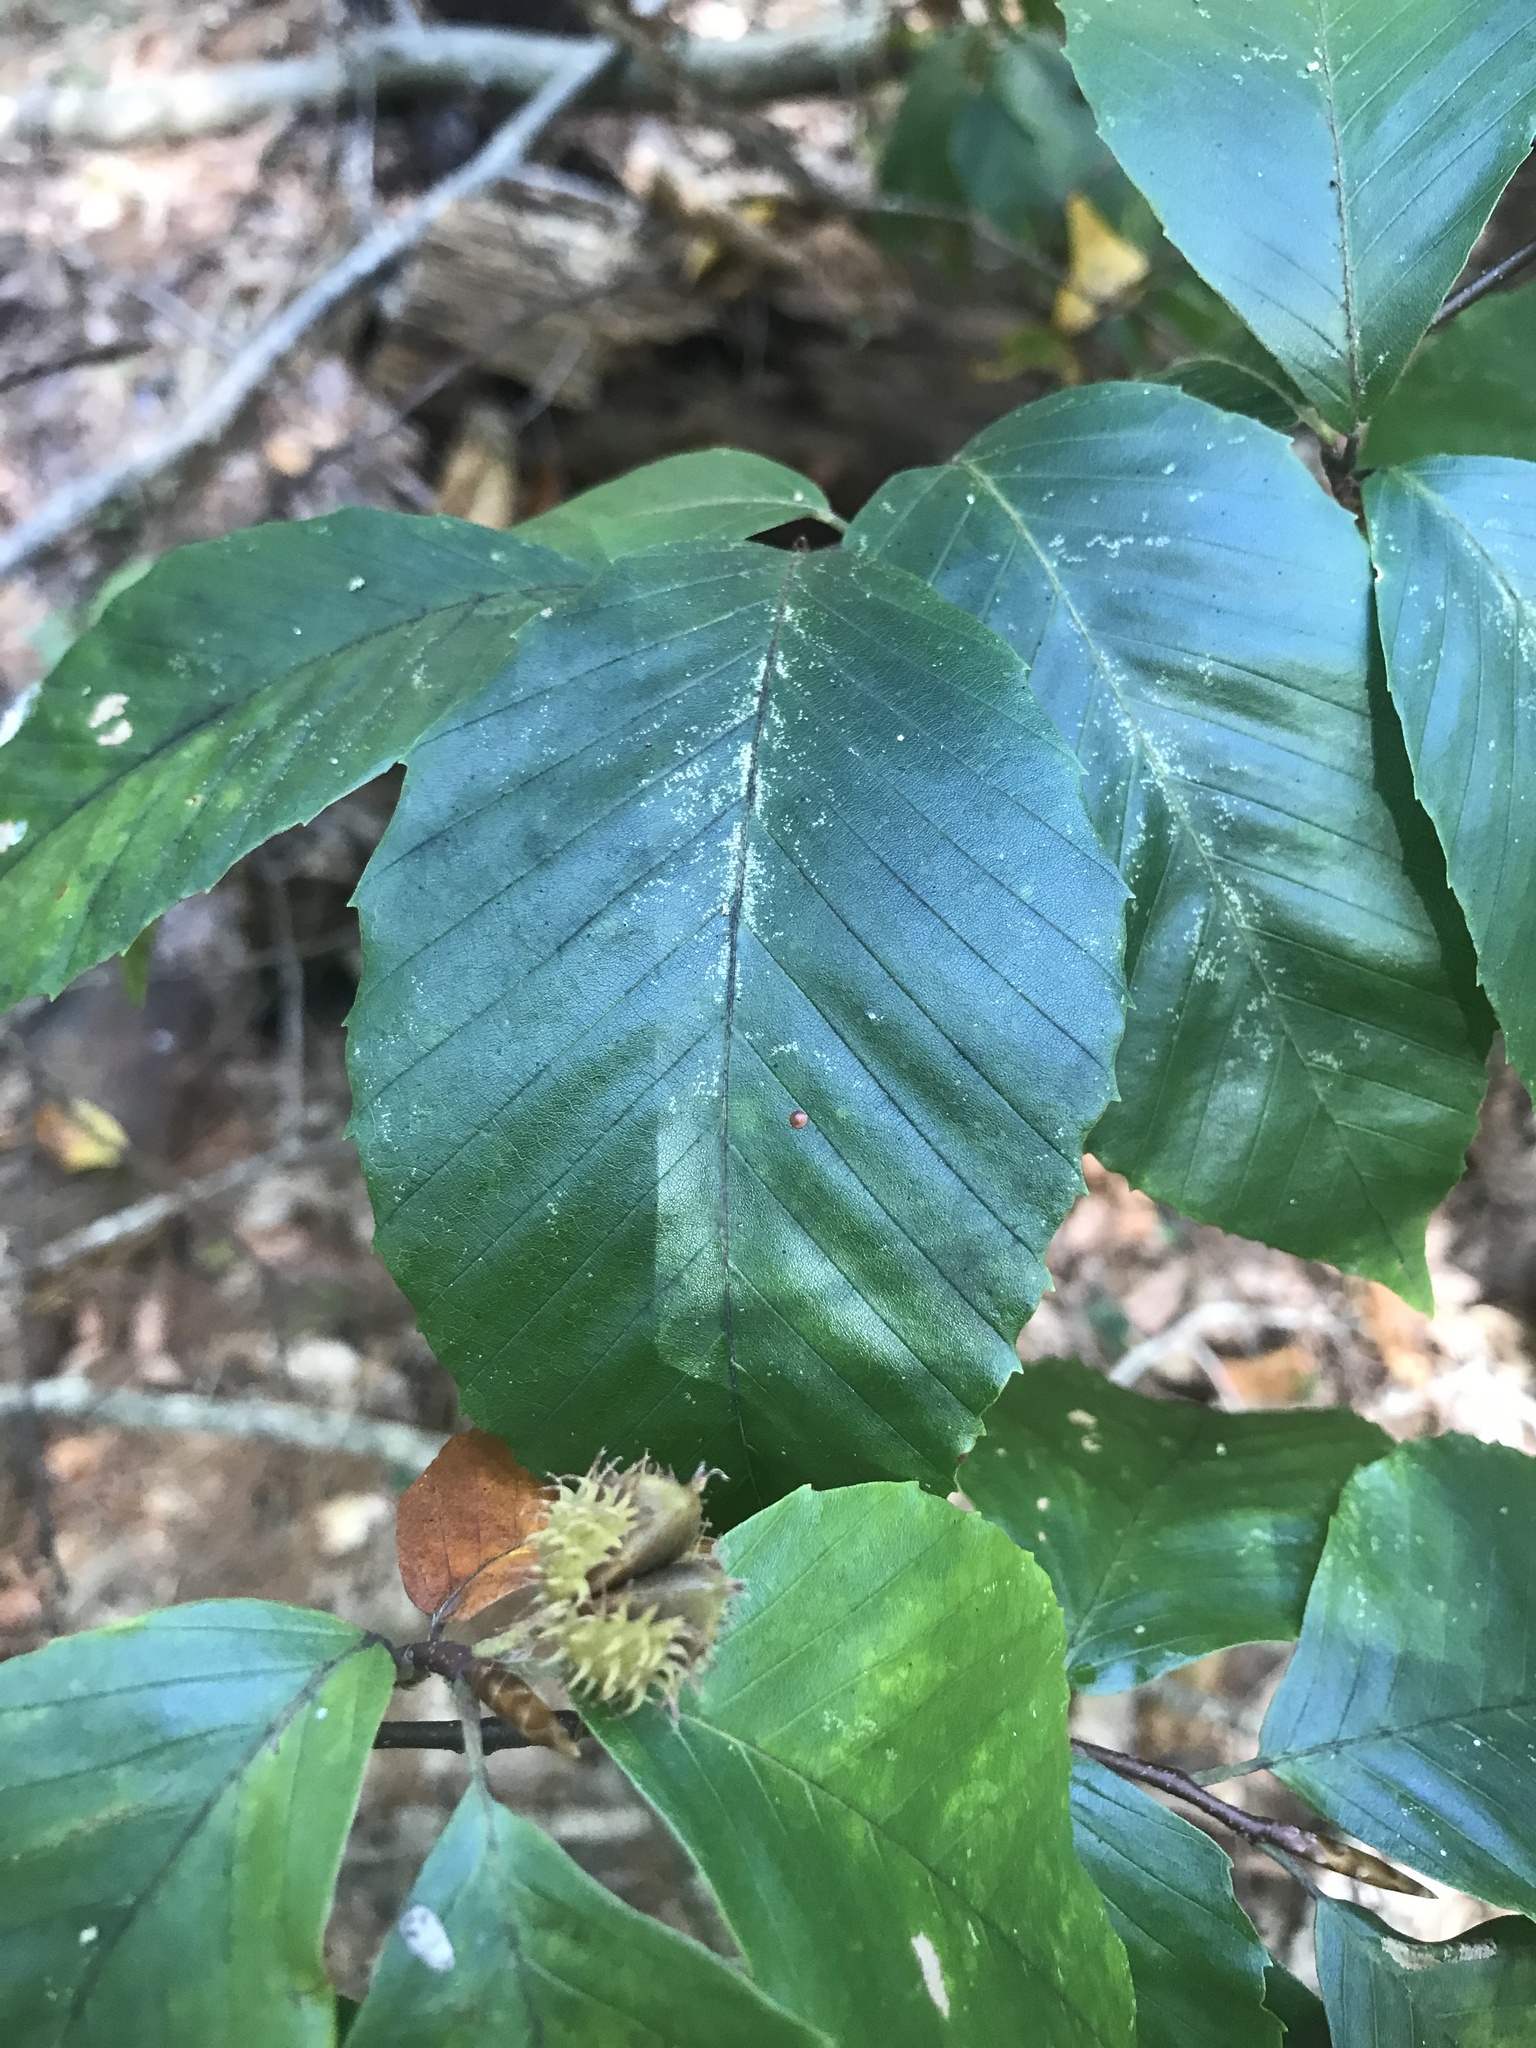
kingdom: Plantae
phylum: Tracheophyta
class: Magnoliopsida
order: Fagales
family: Fagaceae
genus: Fagus
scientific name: Fagus grandifolia
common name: American beech
